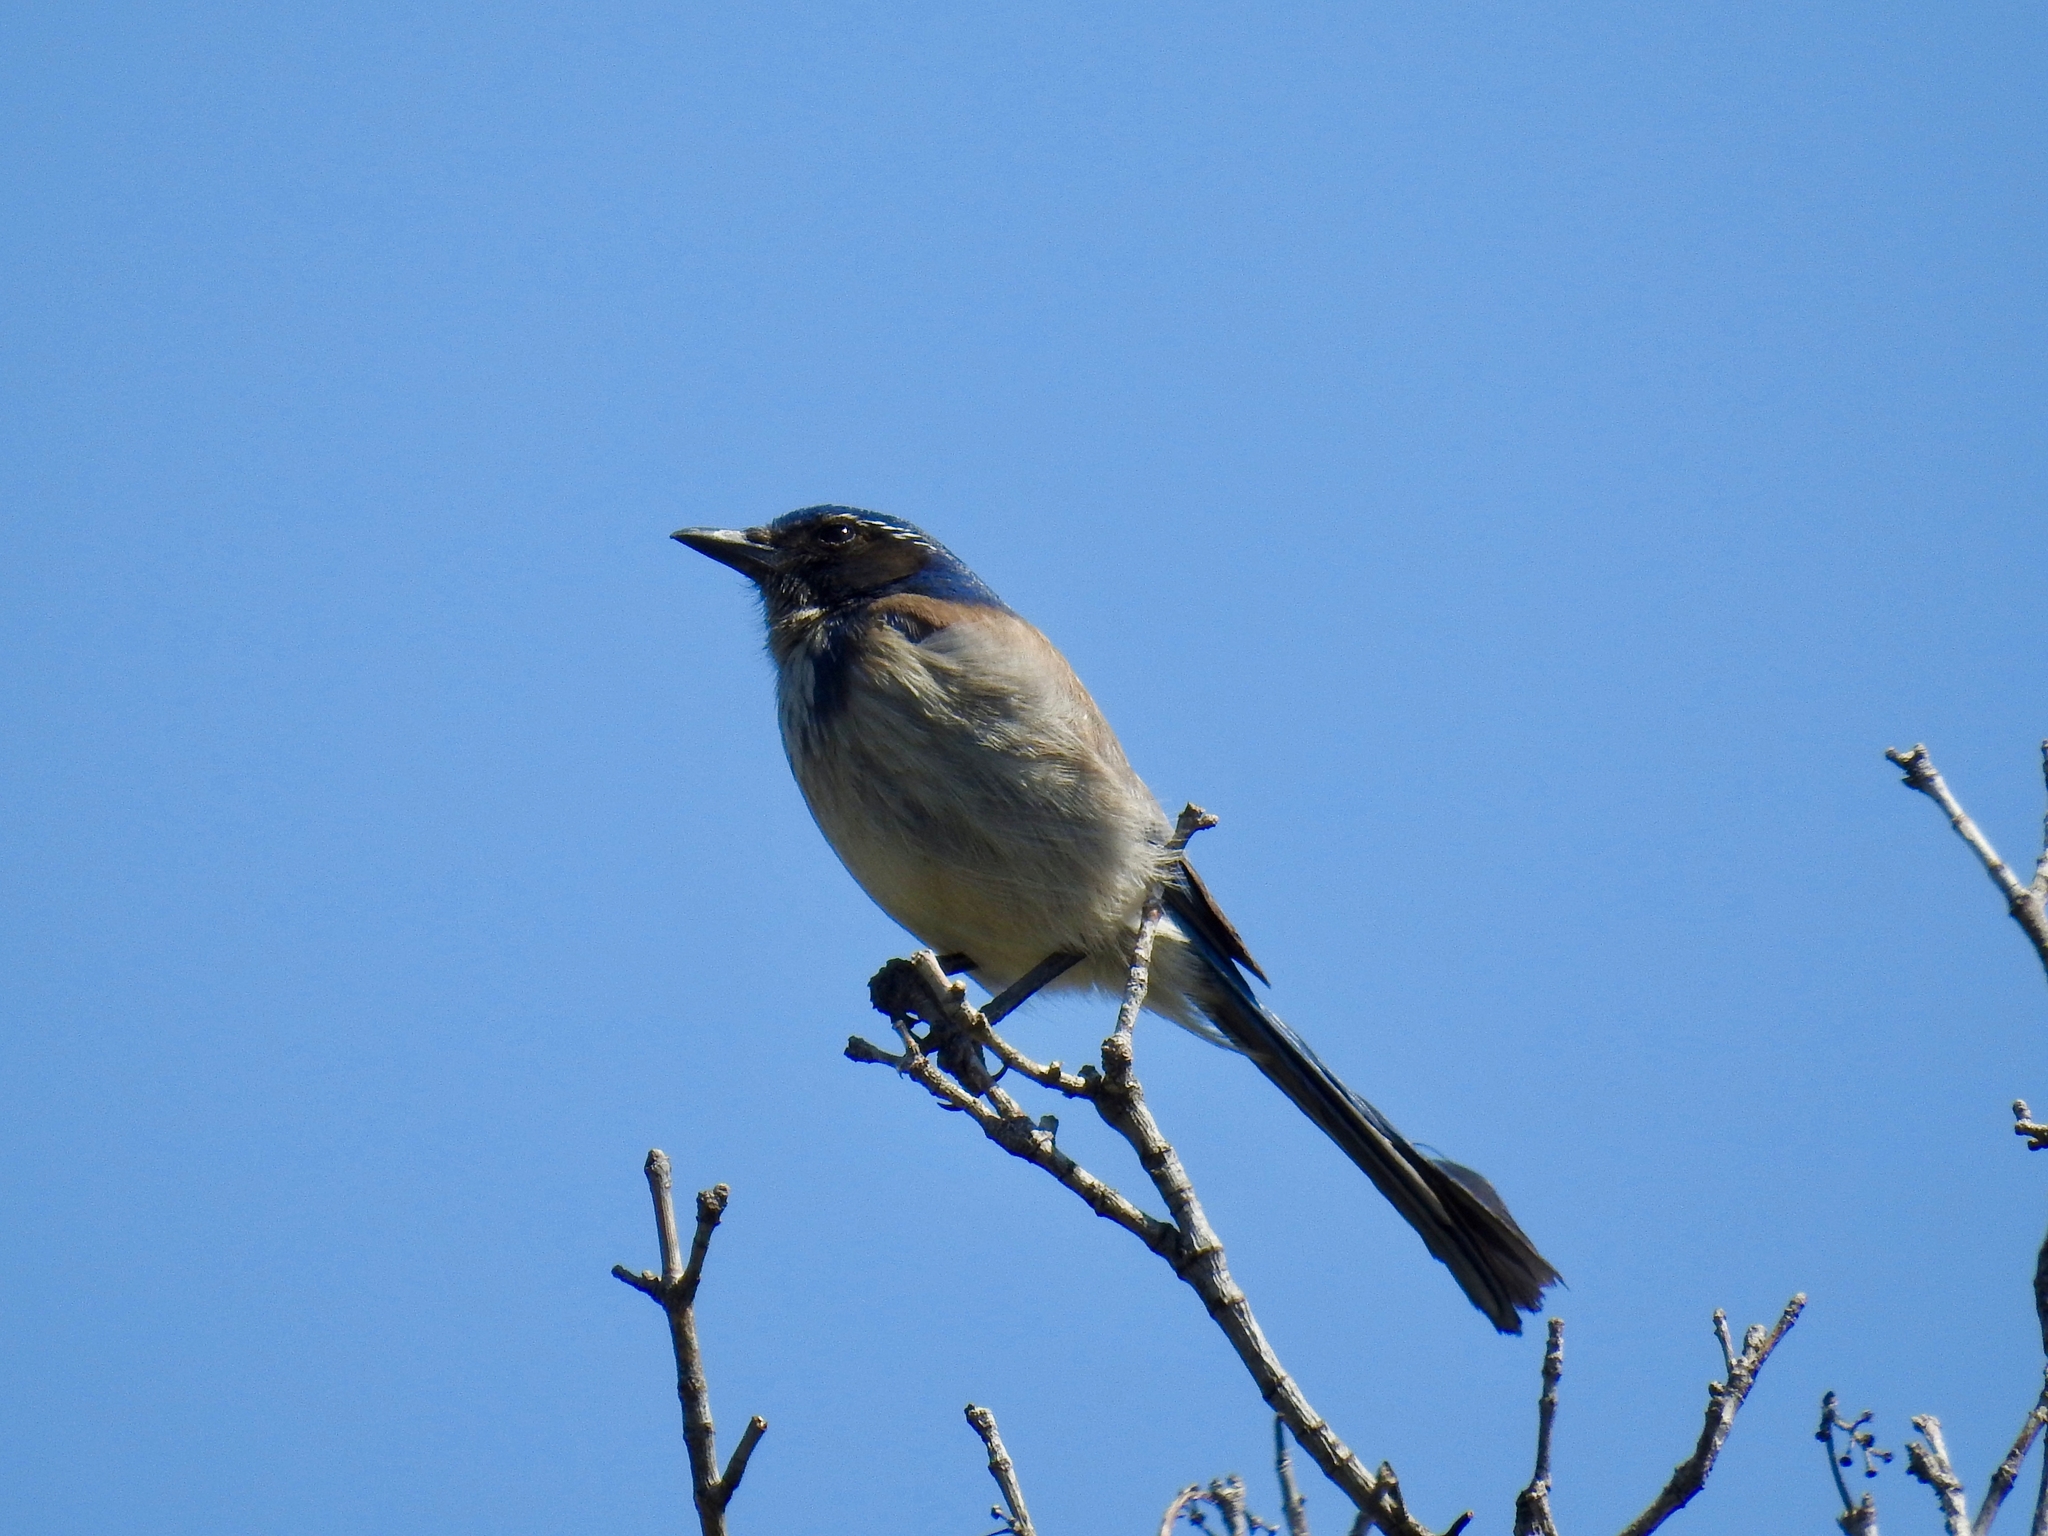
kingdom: Animalia
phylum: Chordata
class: Aves
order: Passeriformes
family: Corvidae
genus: Aphelocoma
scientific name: Aphelocoma californica
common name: California scrub-jay
